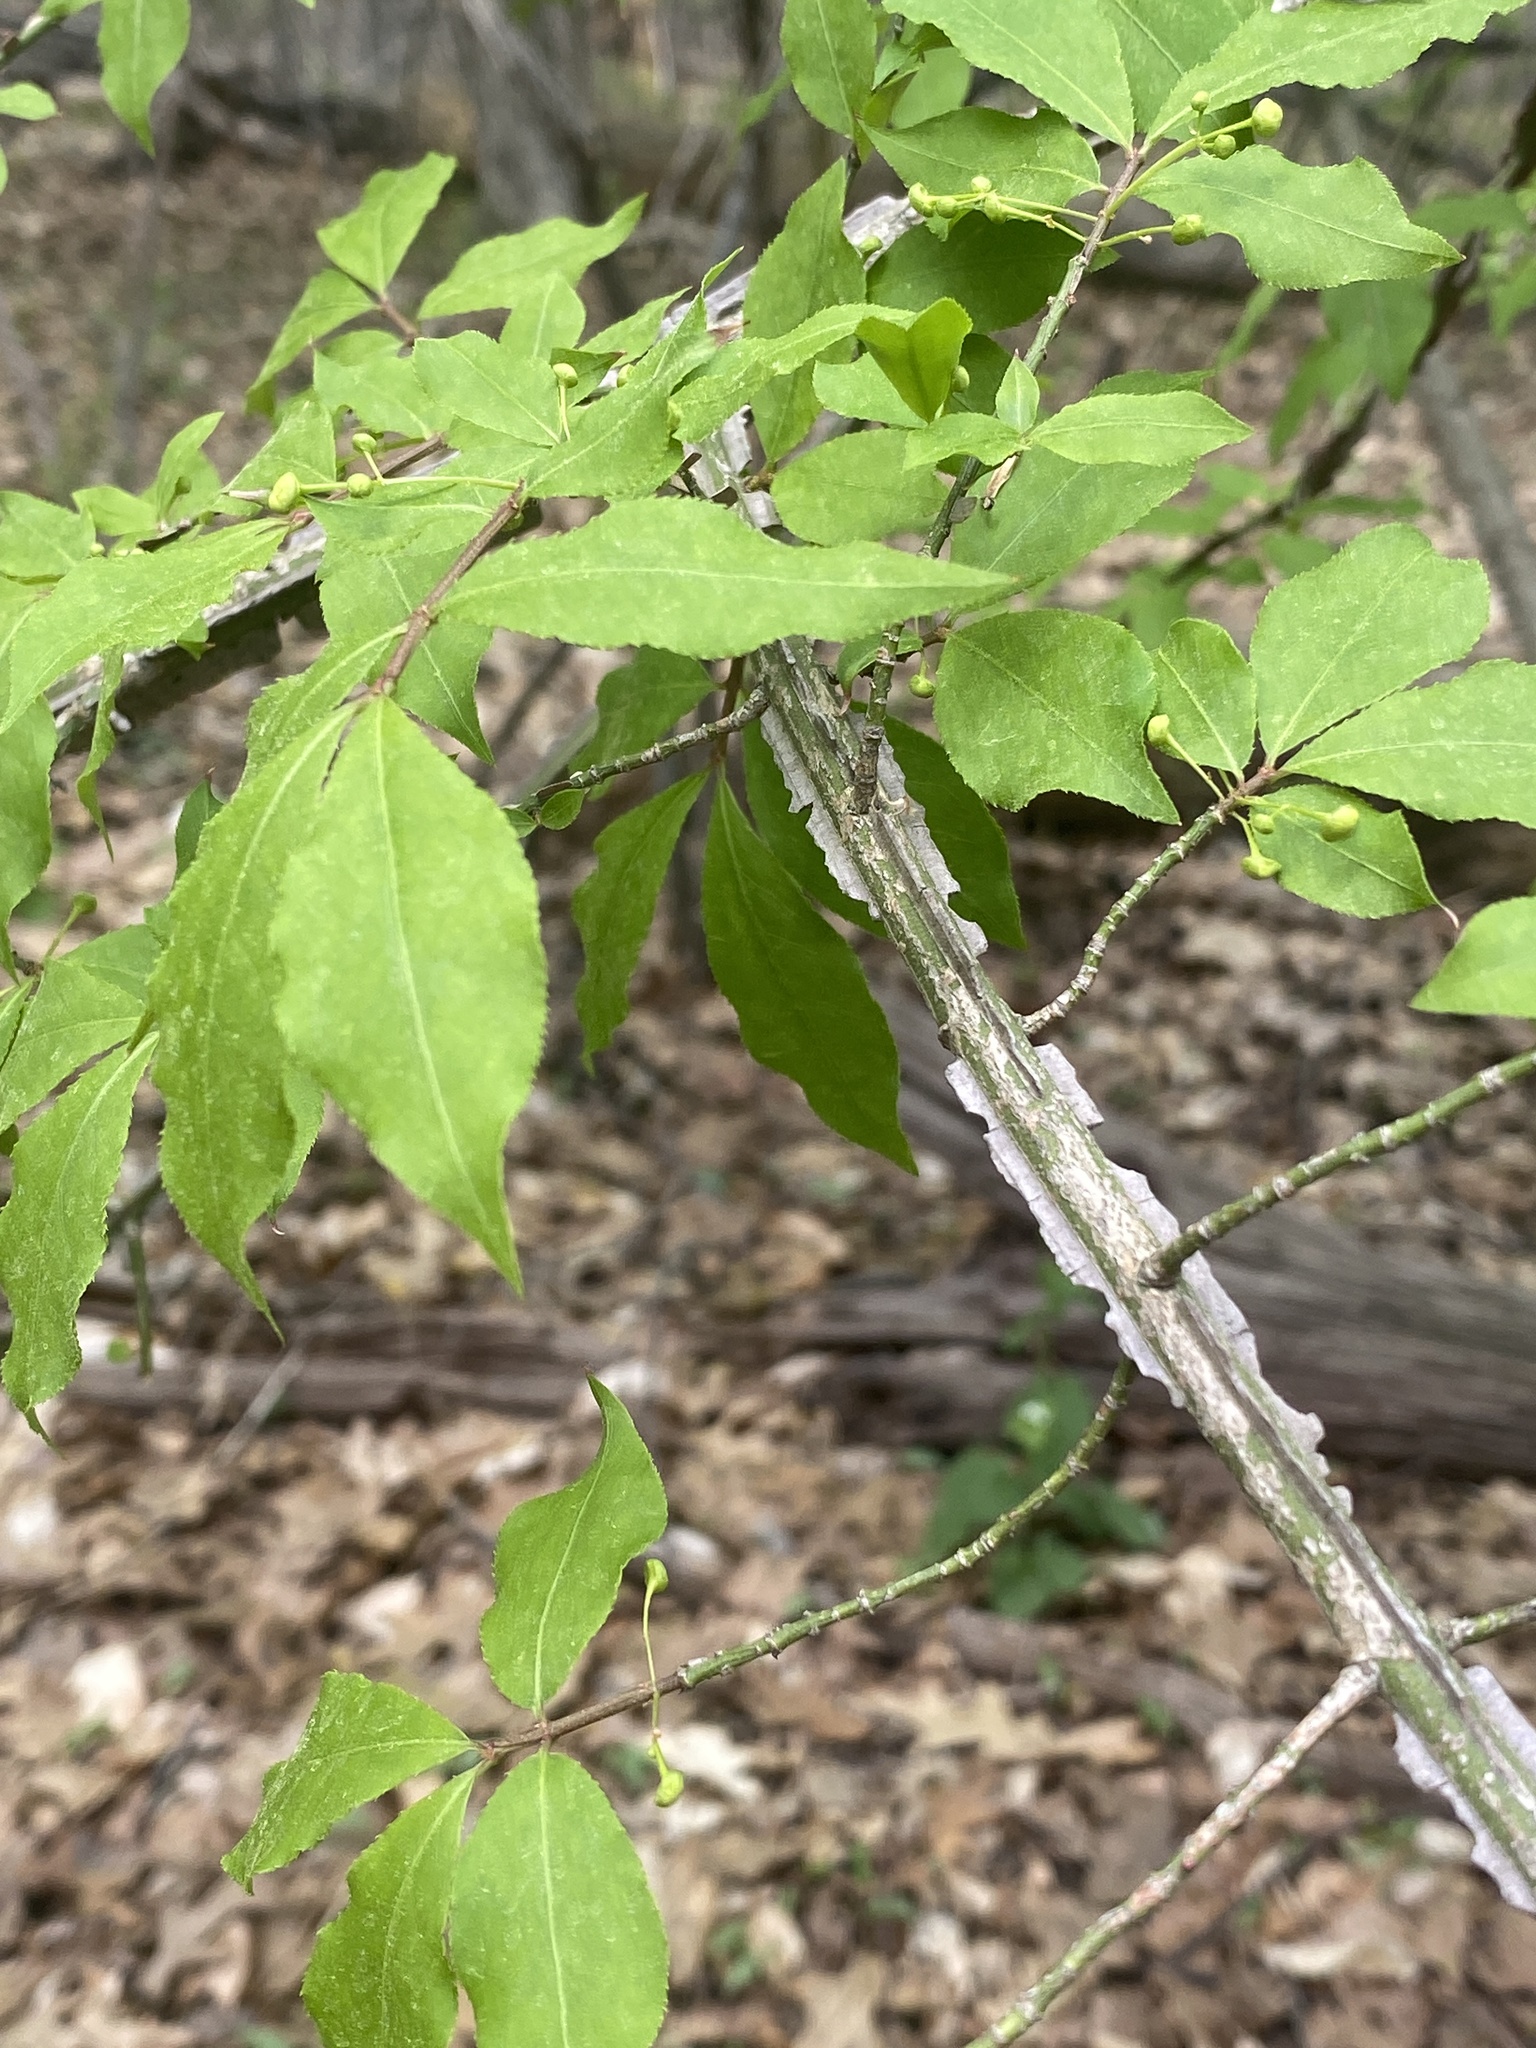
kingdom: Plantae
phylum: Tracheophyta
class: Magnoliopsida
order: Celastrales
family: Celastraceae
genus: Euonymus
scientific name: Euonymus alatus
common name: Winged euonymus
